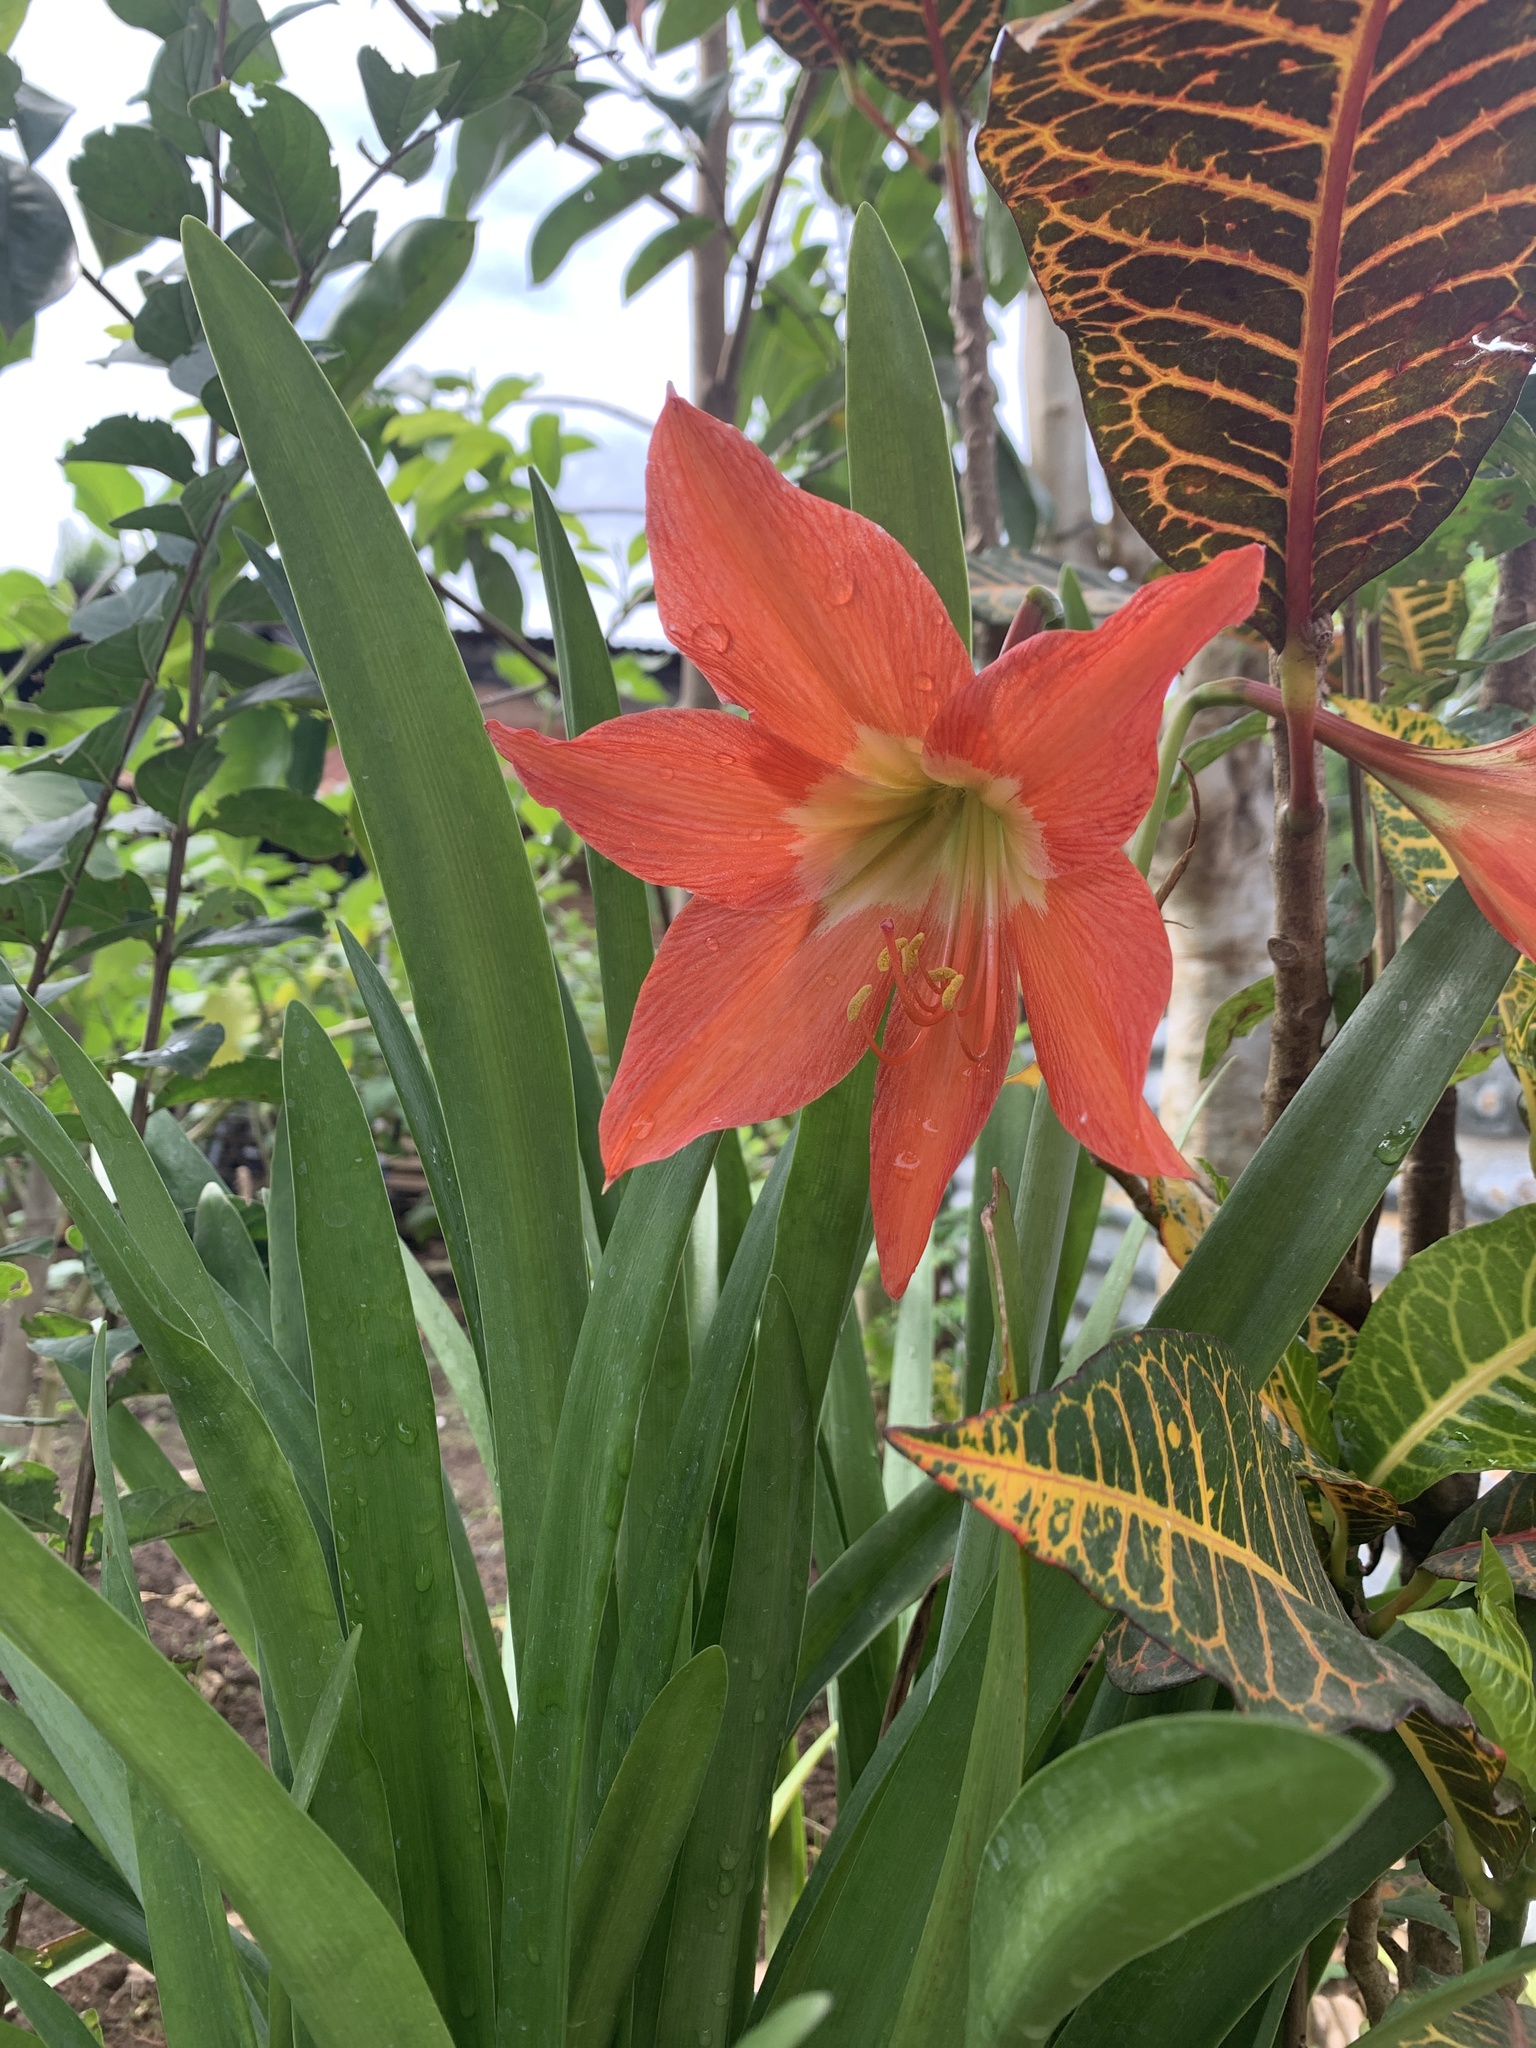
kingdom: Plantae
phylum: Tracheophyta
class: Liliopsida
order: Asparagales
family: Amaryllidaceae
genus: Hippeastrum
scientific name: Hippeastrum reginae
